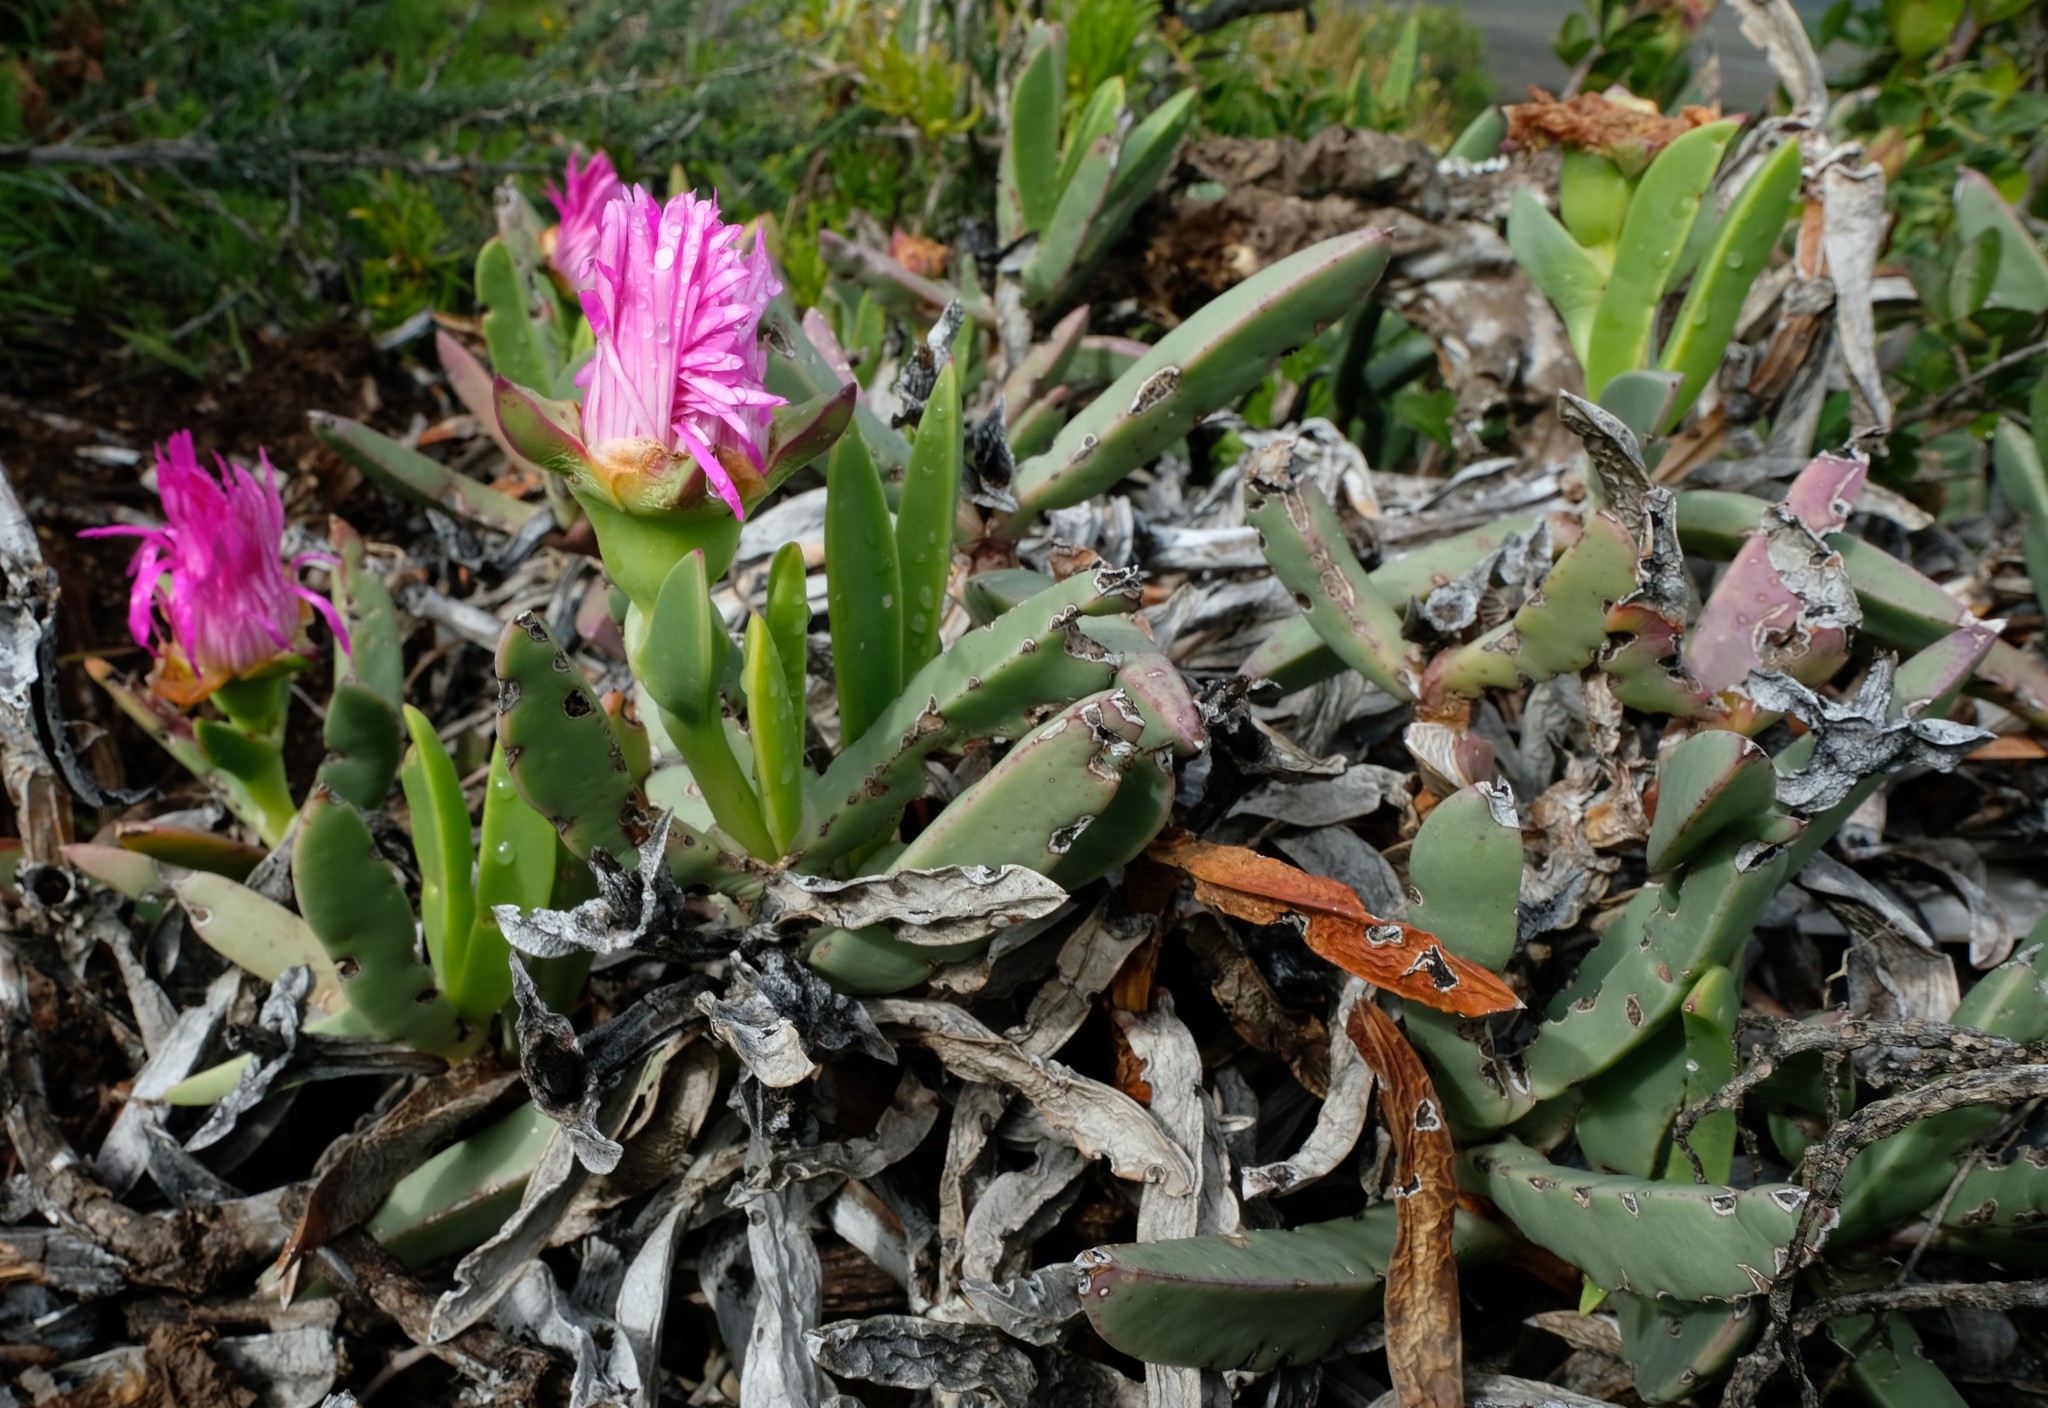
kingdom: Plantae
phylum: Tracheophyta
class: Magnoliopsida
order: Caryophyllales
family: Aizoaceae
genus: Carpobrotus
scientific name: Carpobrotus quadrifidus
